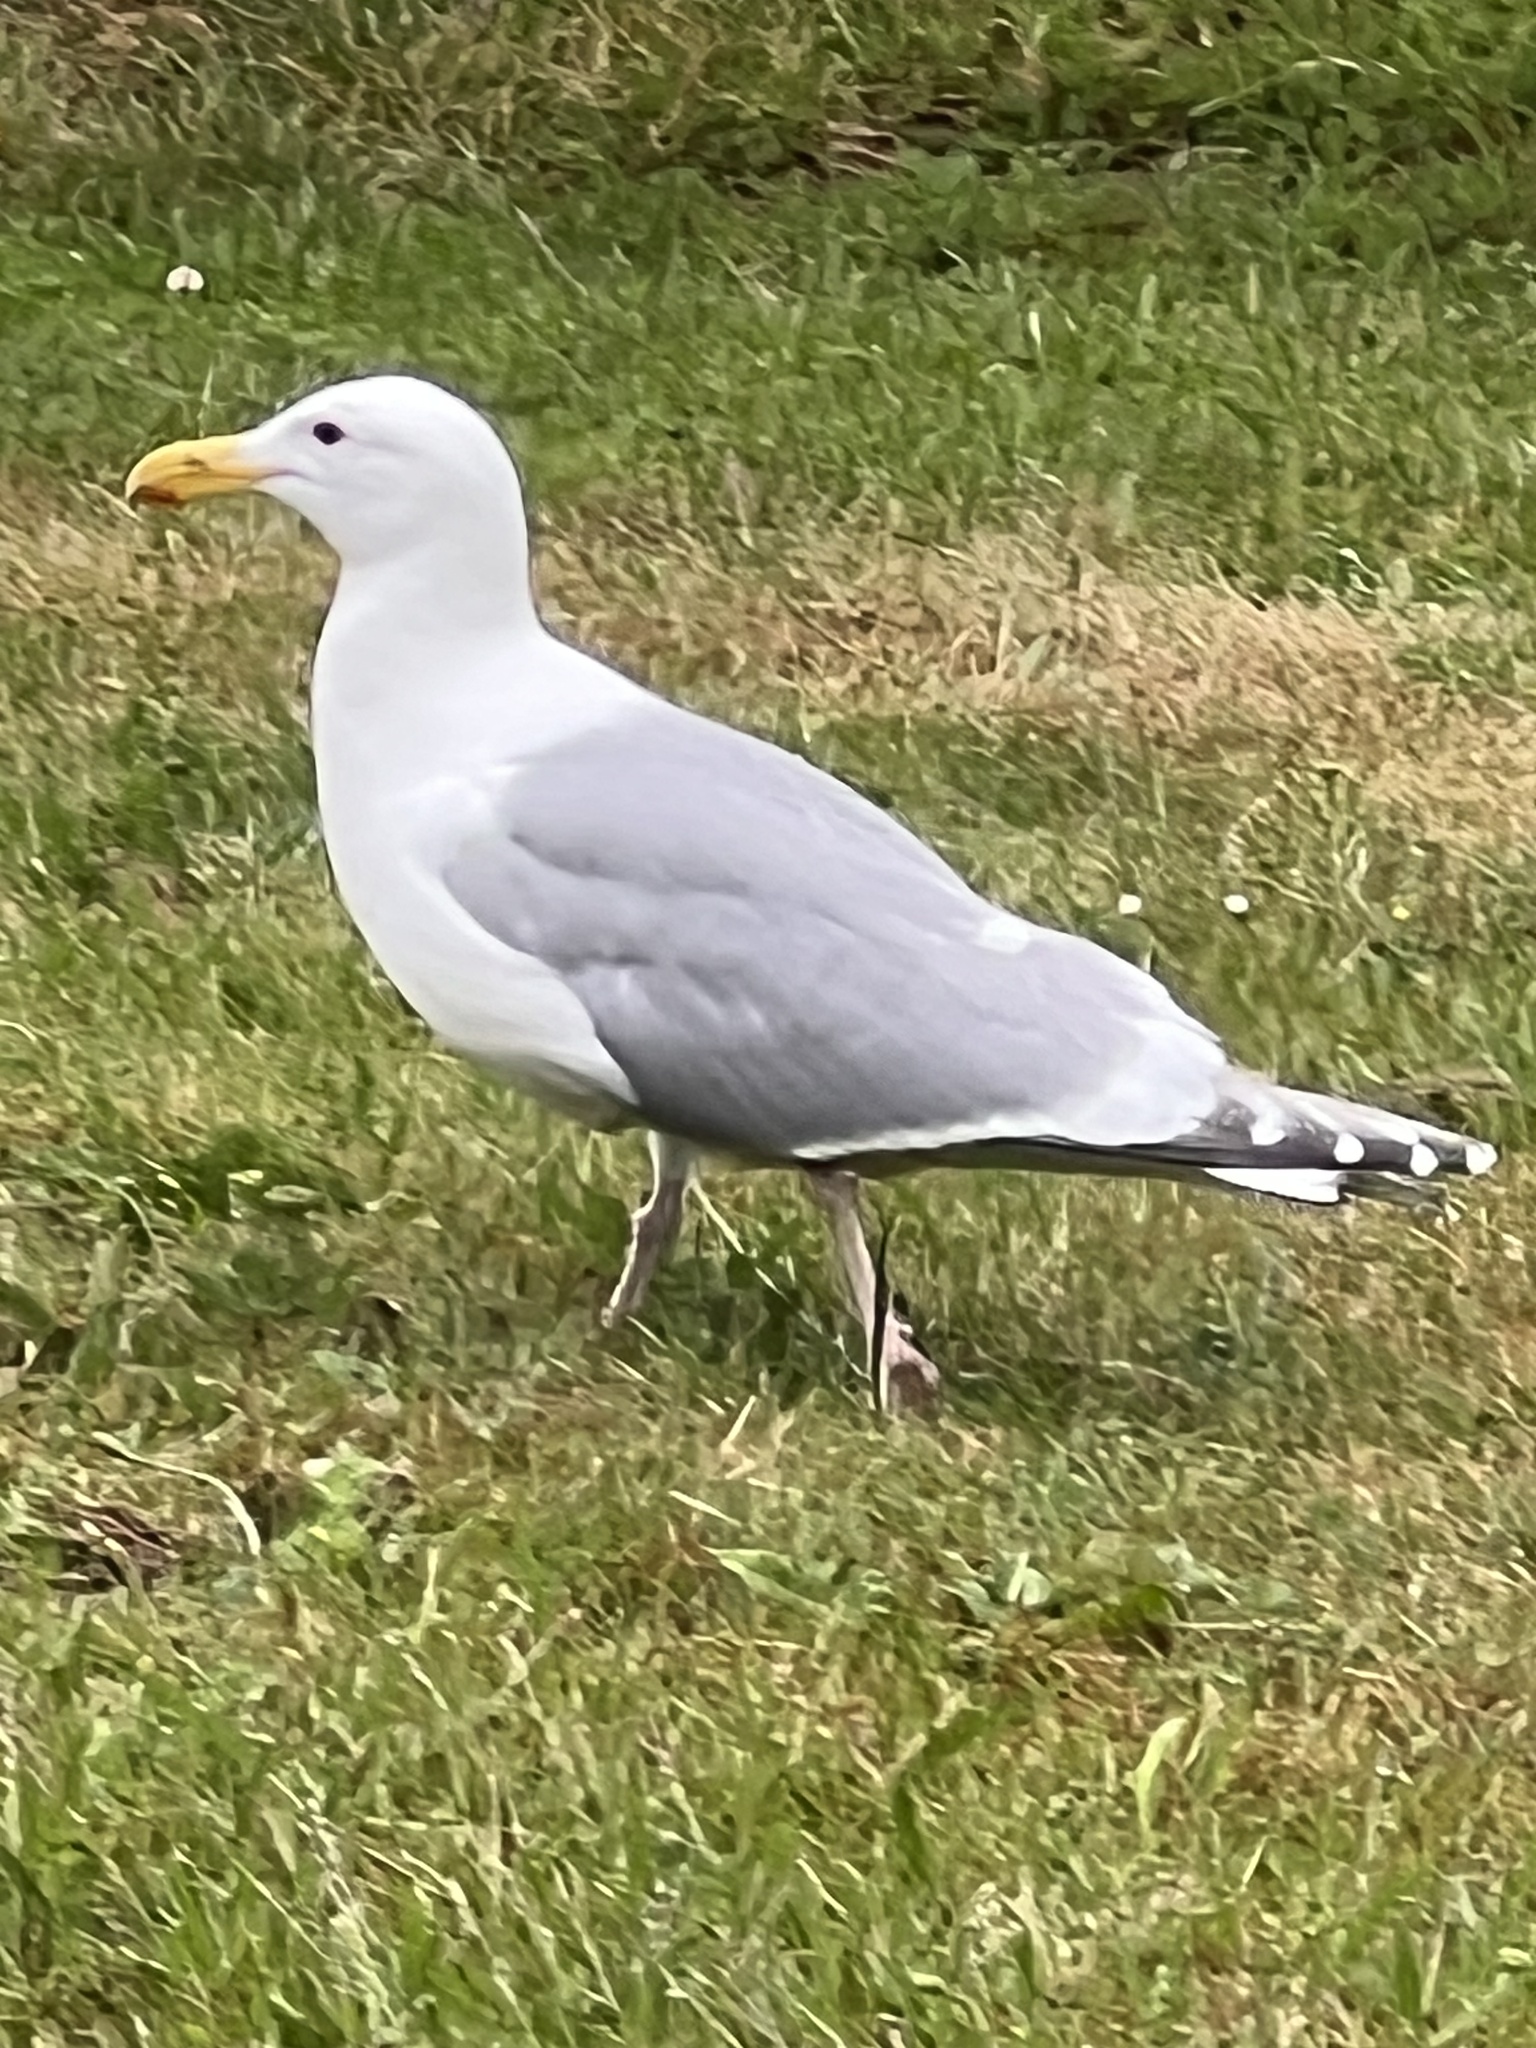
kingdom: Animalia
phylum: Chordata
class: Aves
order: Charadriiformes
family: Laridae
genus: Larus
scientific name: Larus
